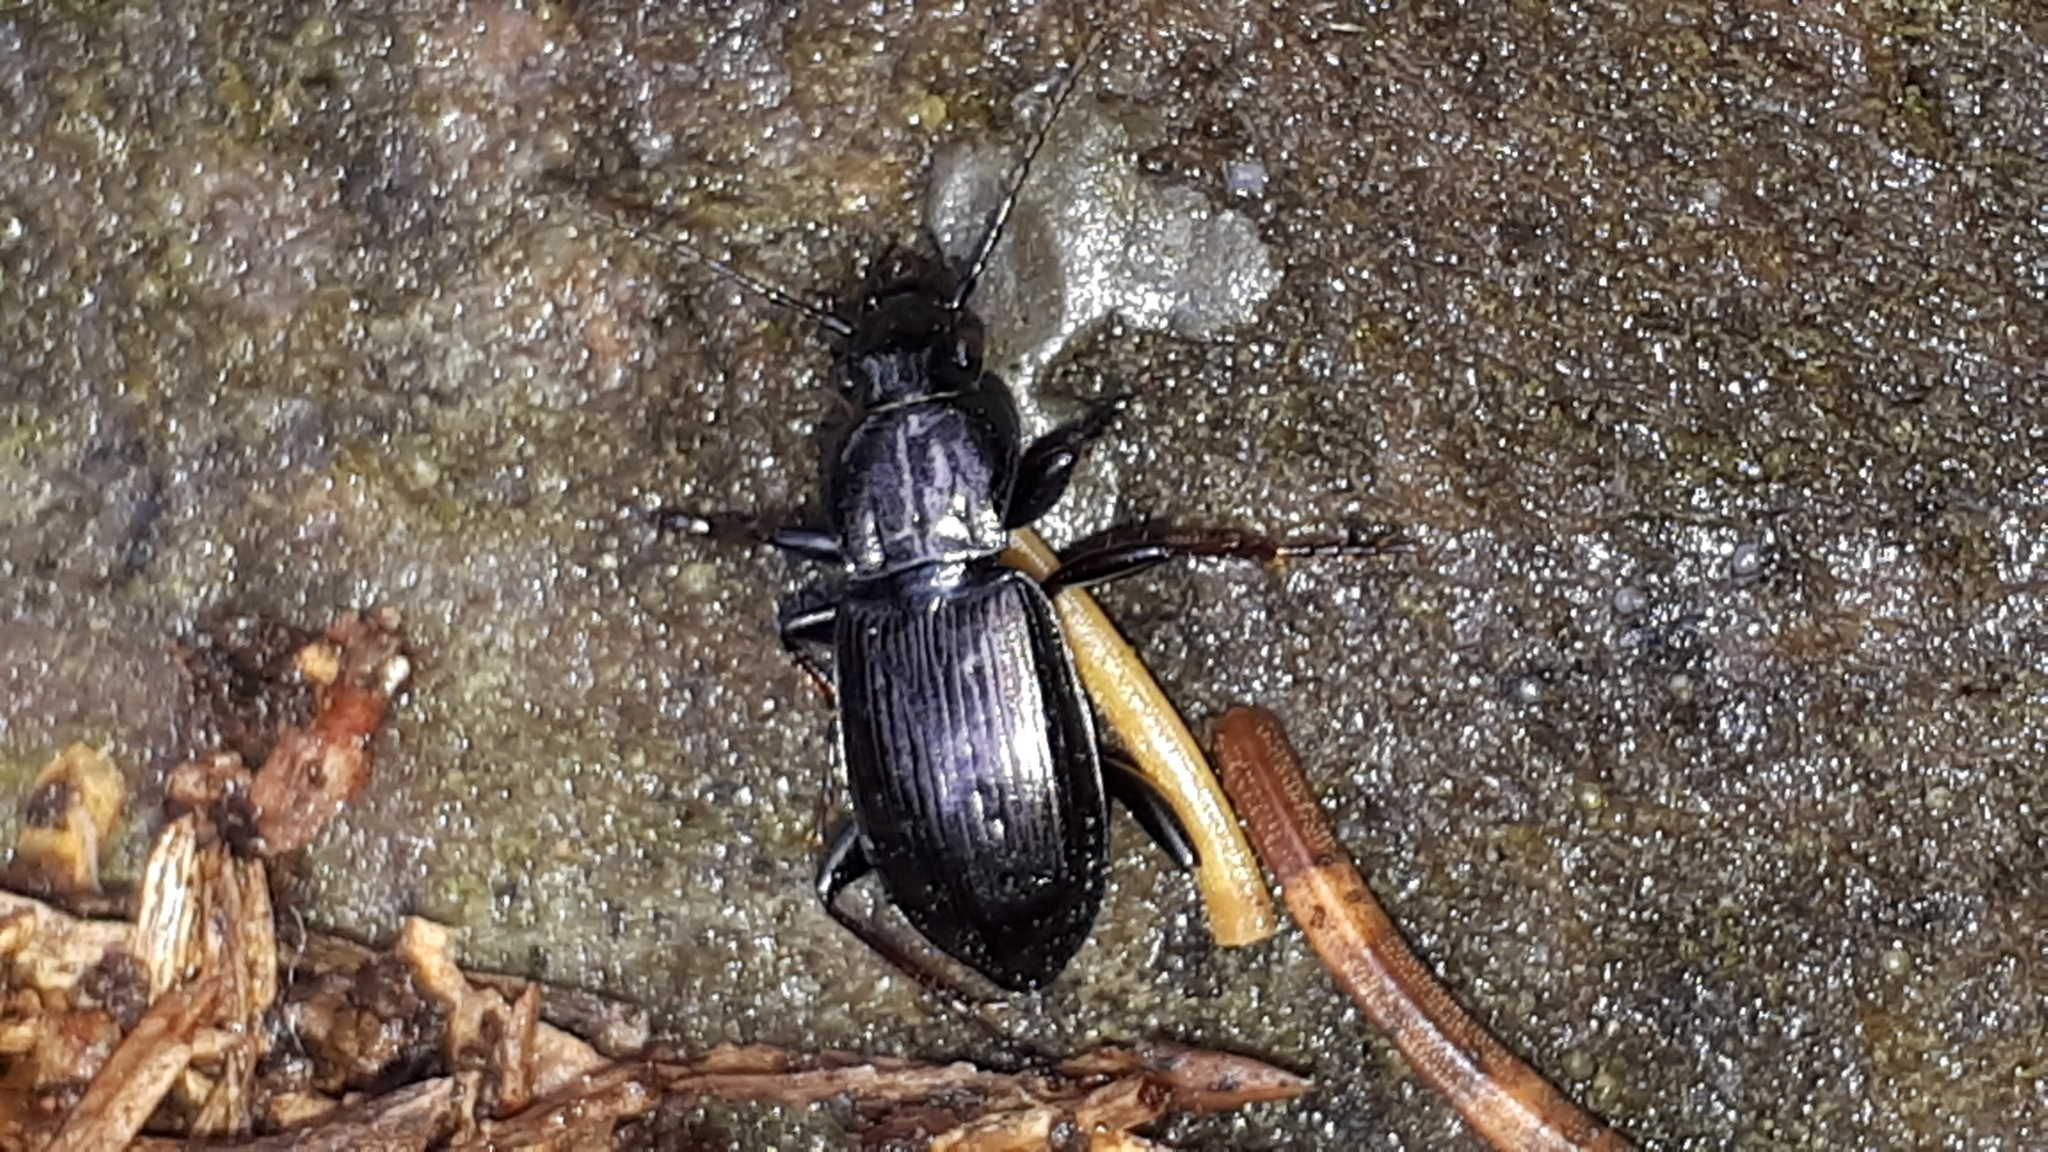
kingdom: Animalia
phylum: Arthropoda
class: Insecta
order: Coleoptera
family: Carabidae
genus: Pterostichus
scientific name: Pterostichus oblongopunctatus
